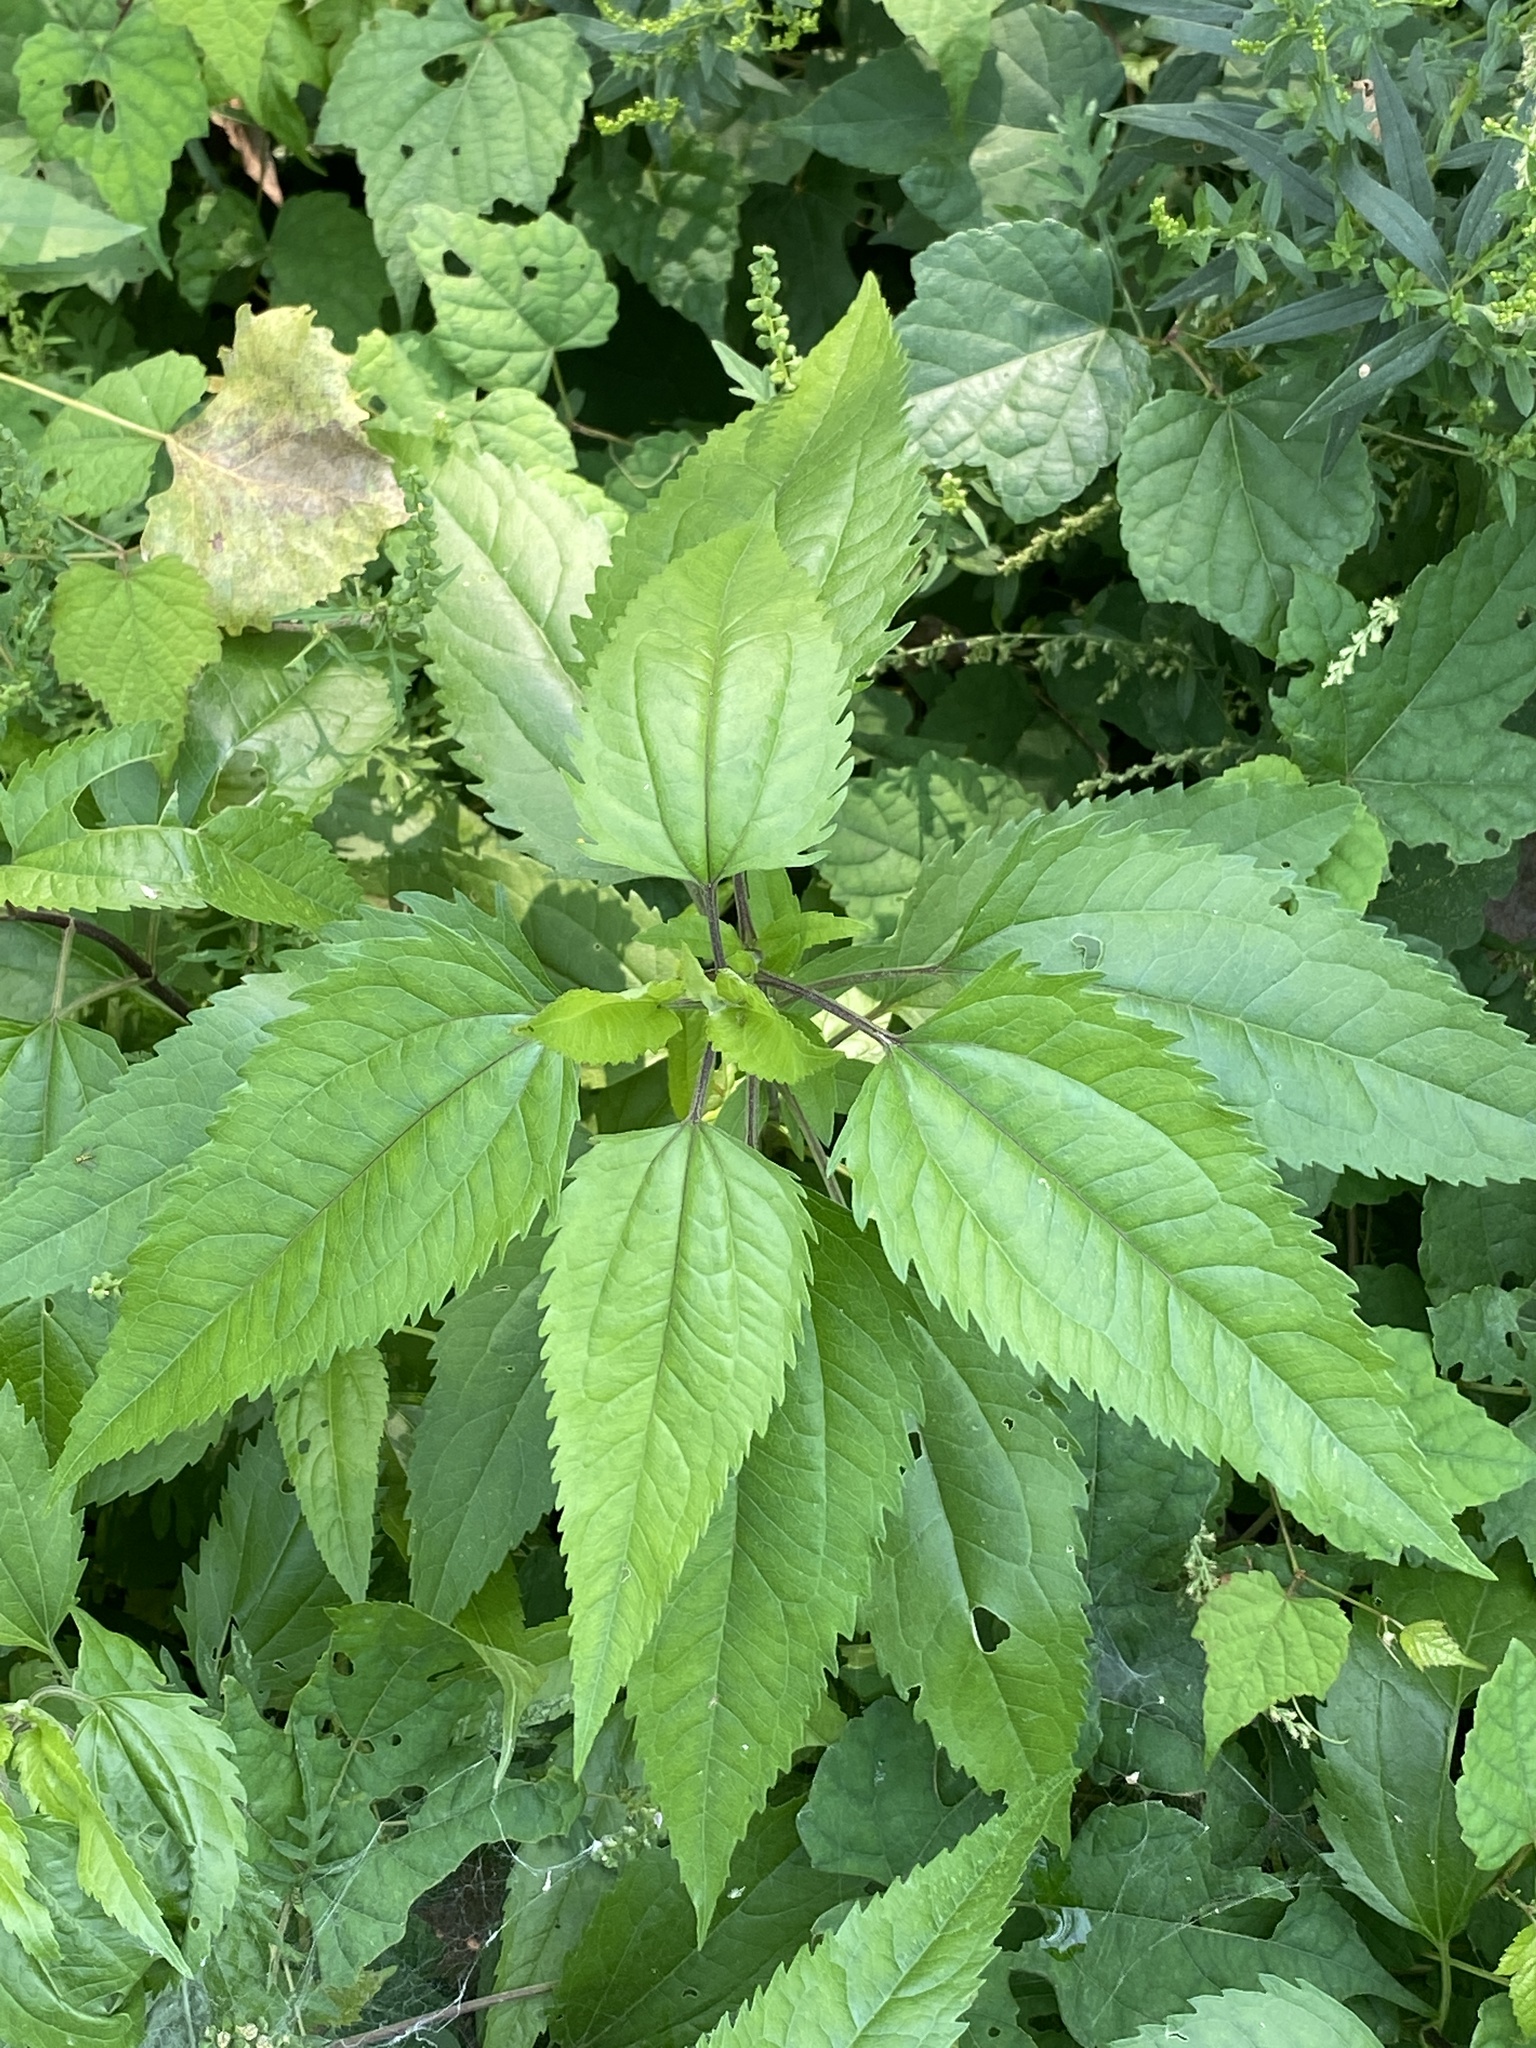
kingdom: Plantae
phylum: Tracheophyta
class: Magnoliopsida
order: Asterales
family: Asteraceae
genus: Eupatorium
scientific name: Eupatorium serotinum
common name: Late boneset
